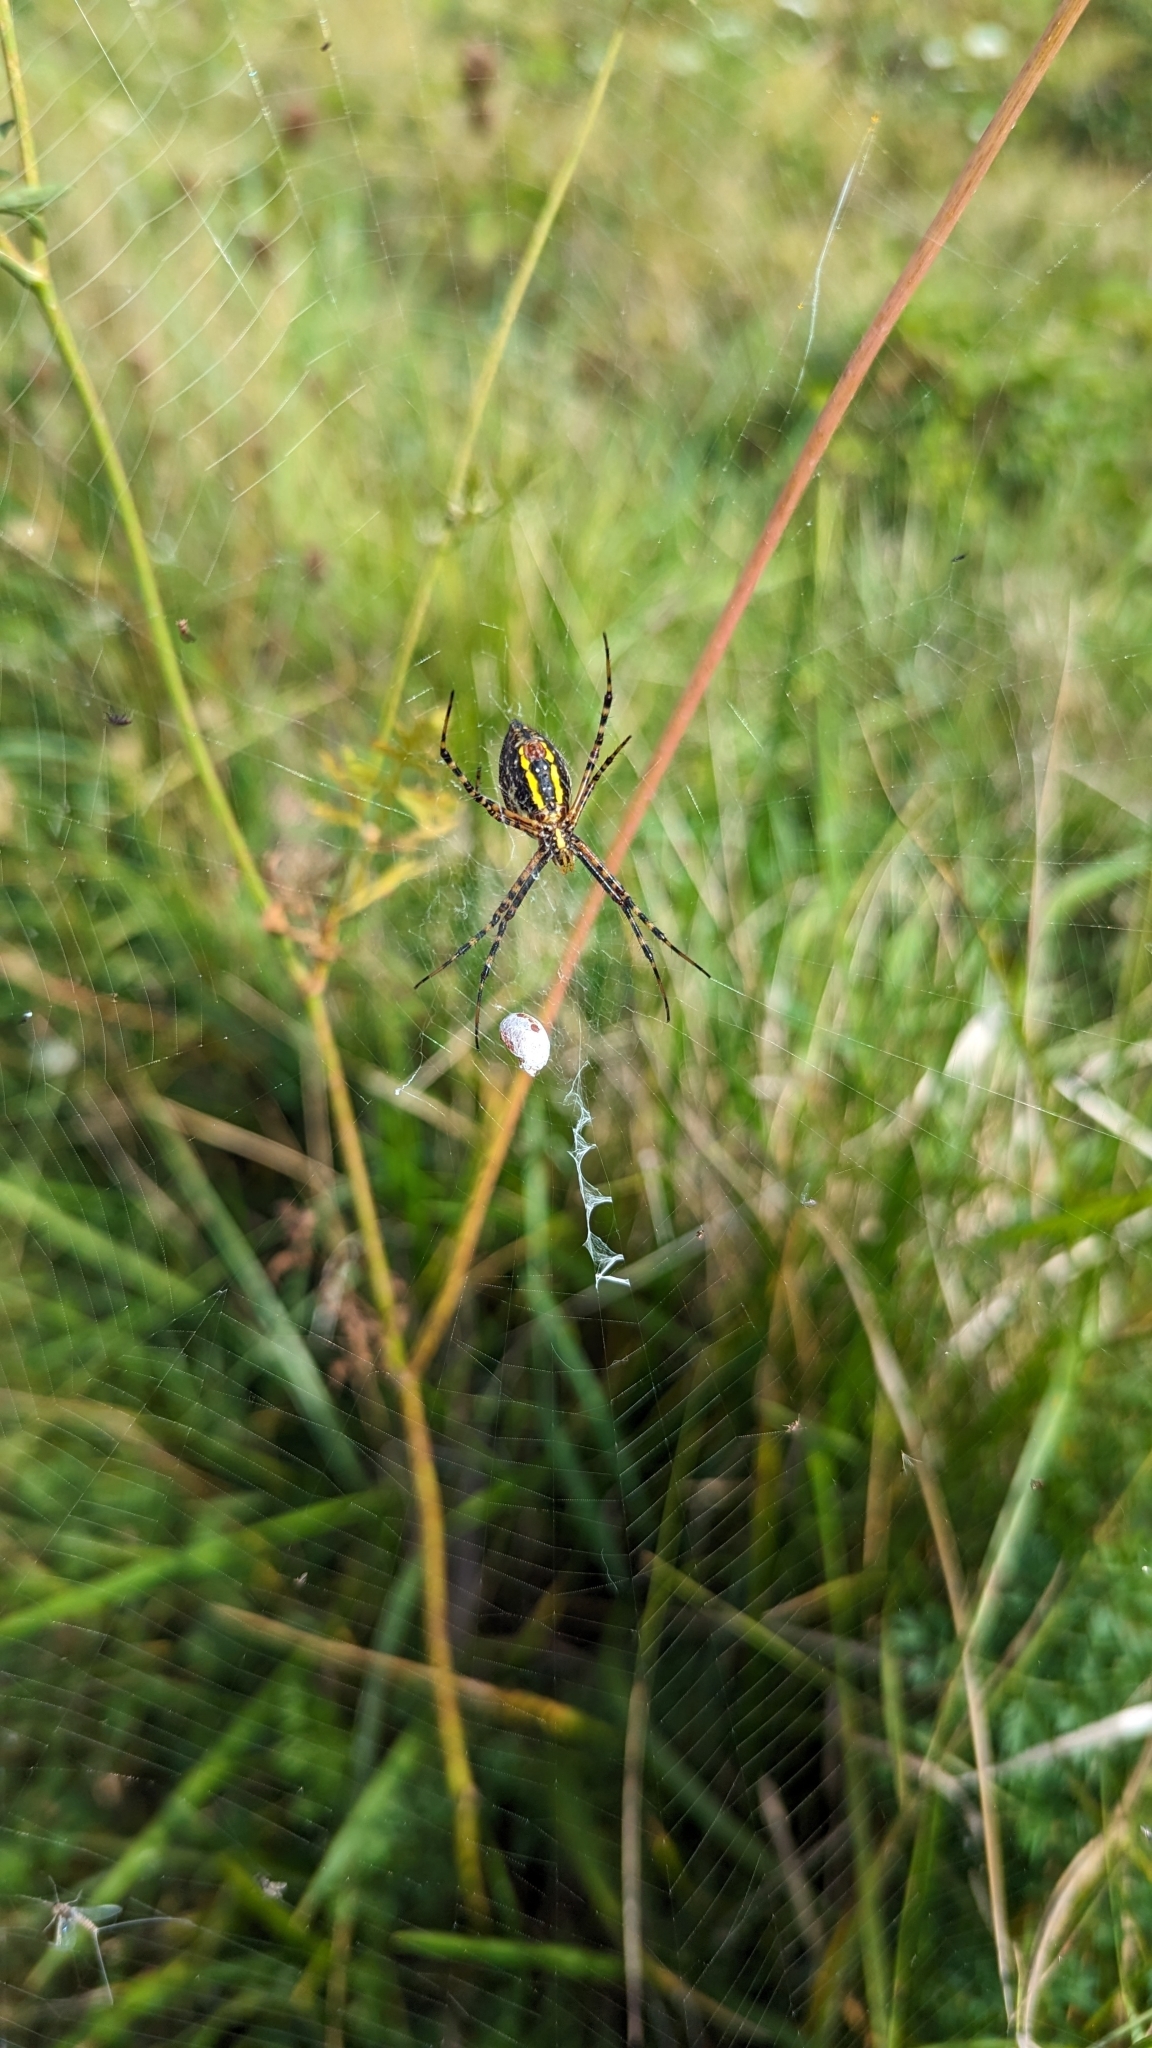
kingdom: Animalia
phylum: Arthropoda
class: Arachnida
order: Araneae
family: Araneidae
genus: Argiope
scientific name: Argiope trifasciata
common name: Banded garden spider
